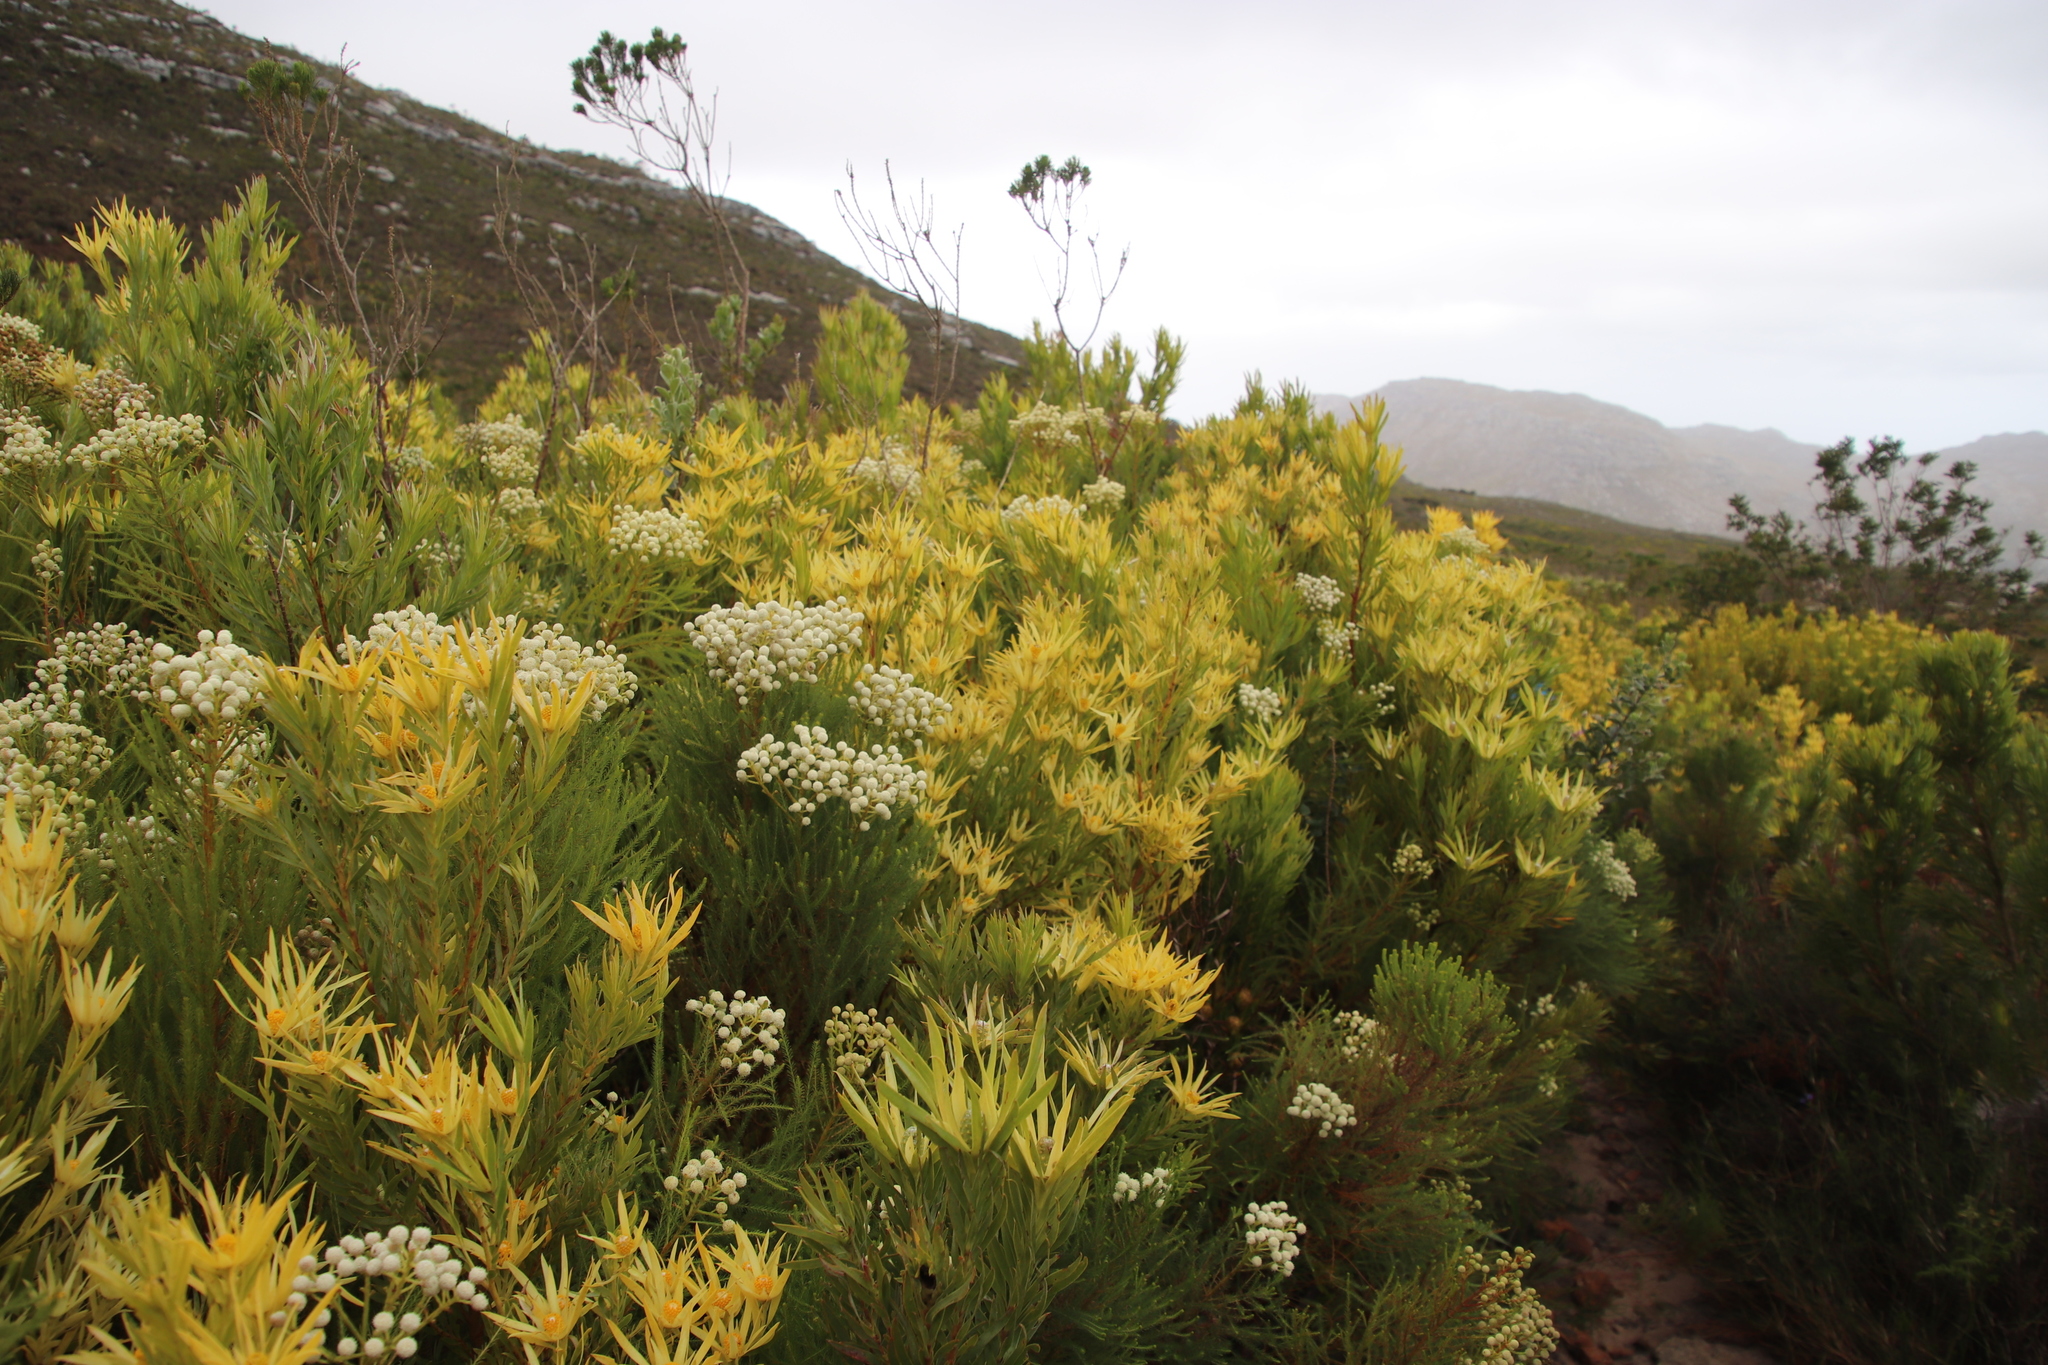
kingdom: Plantae
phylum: Tracheophyta
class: Magnoliopsida
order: Proteales
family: Proteaceae
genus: Leucadendron
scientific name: Leucadendron xanthoconus
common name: Sickle-leaf conebush
